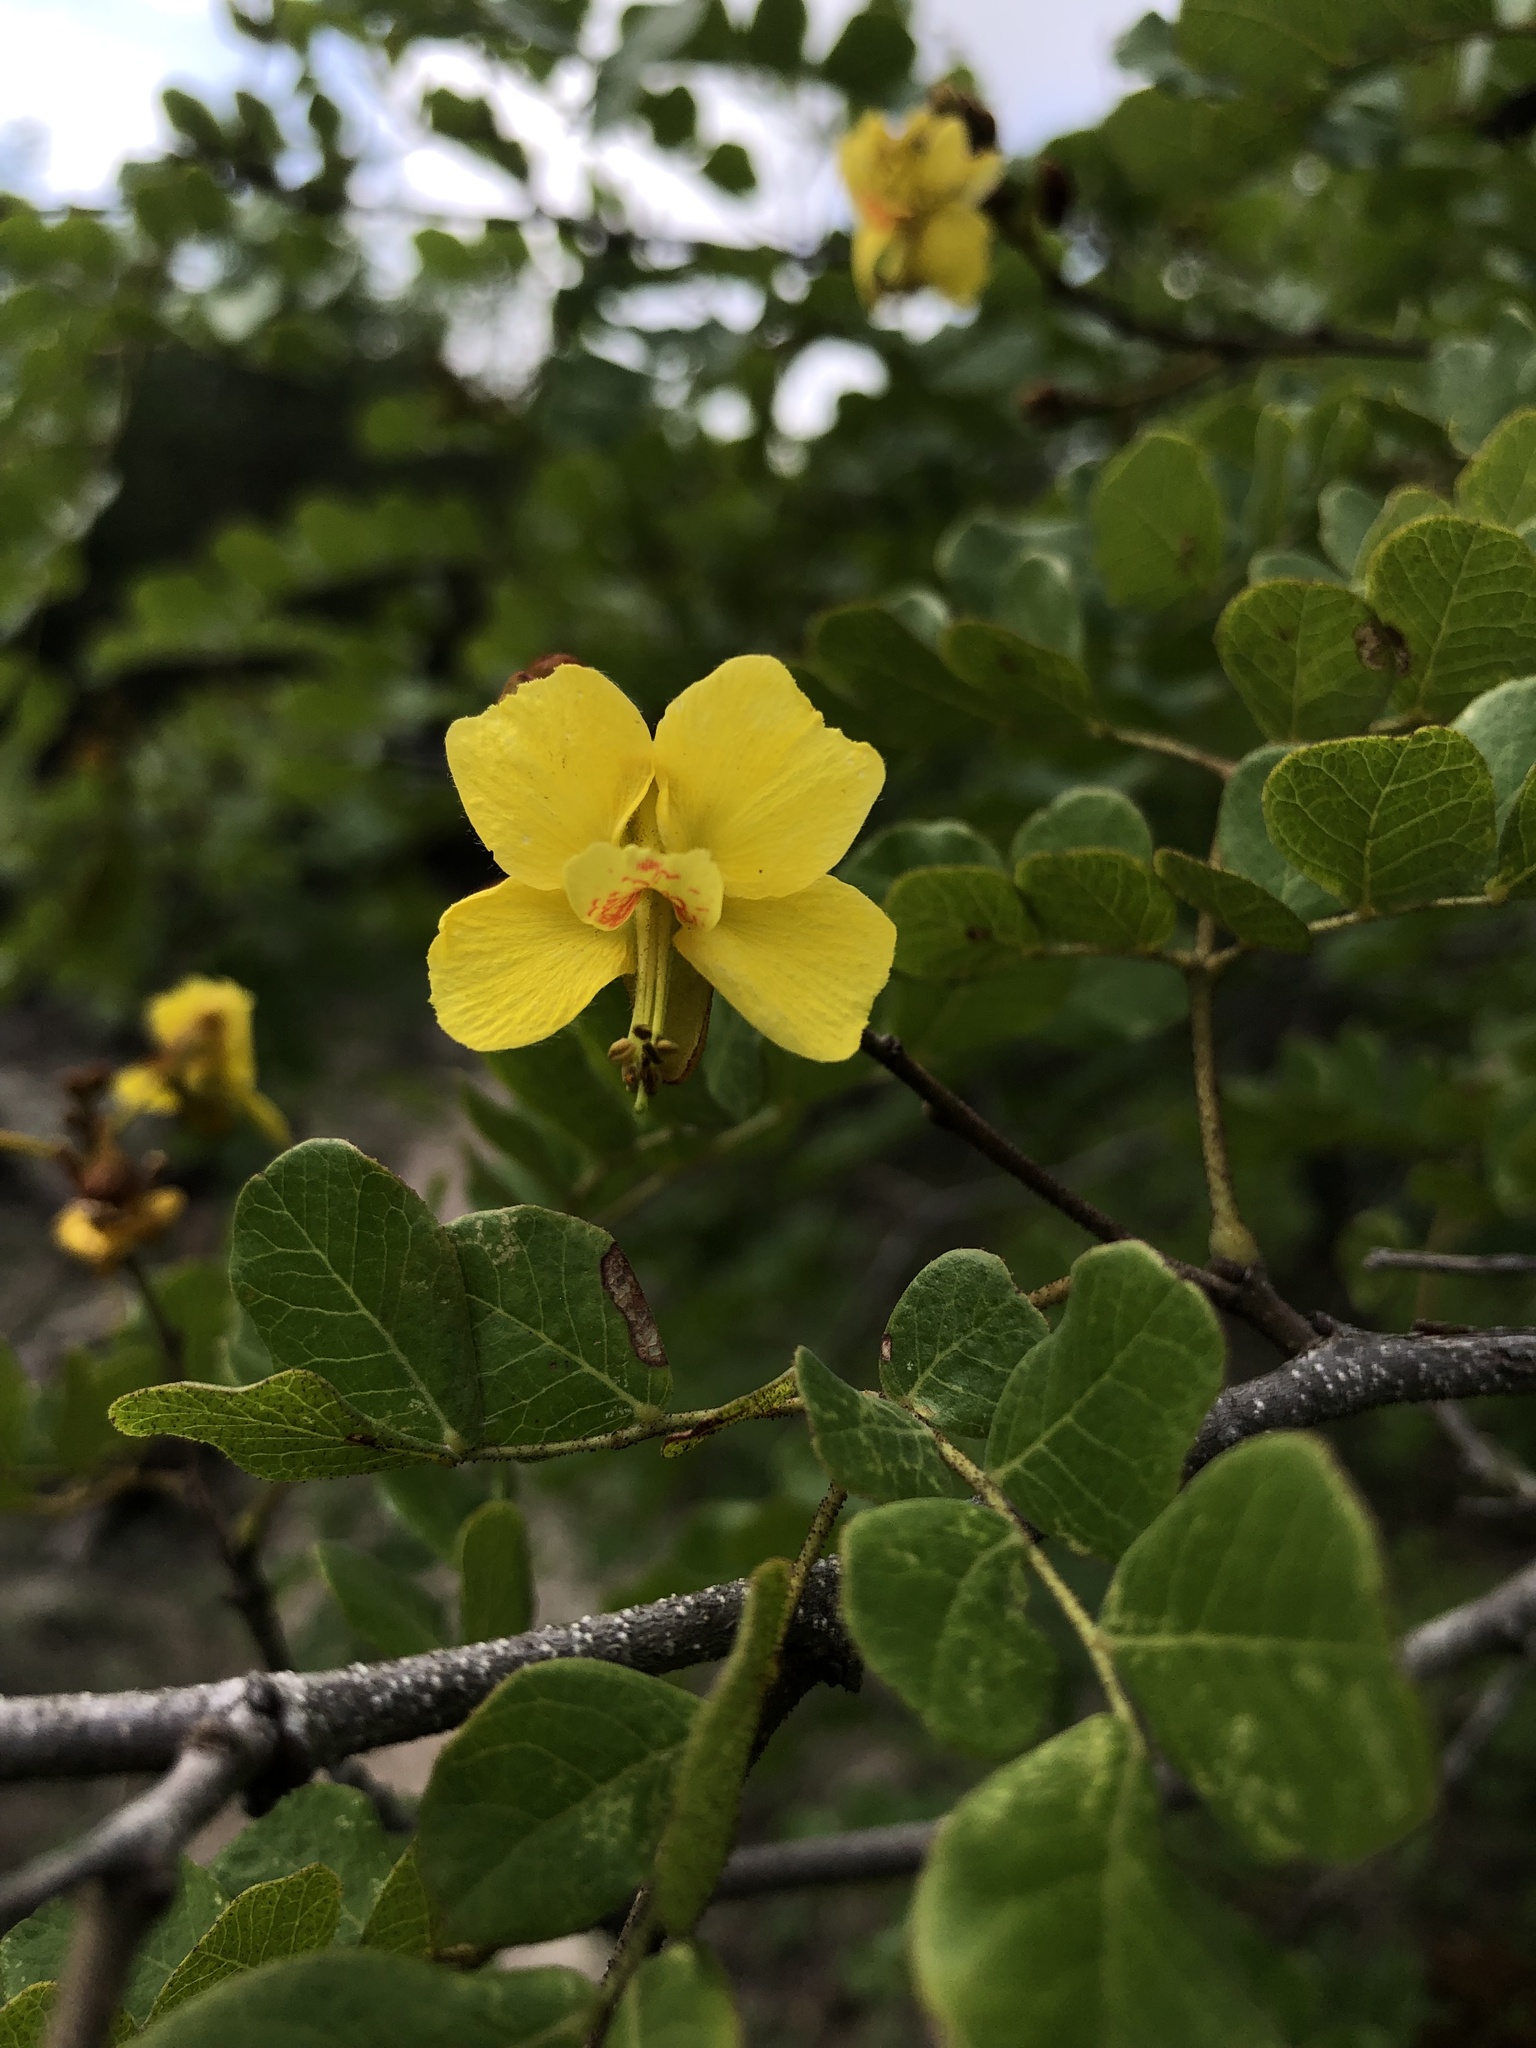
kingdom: Plantae
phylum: Tracheophyta
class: Magnoliopsida
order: Fabales
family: Fabaceae
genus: Cenostigma
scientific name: Cenostigma nordestinum
